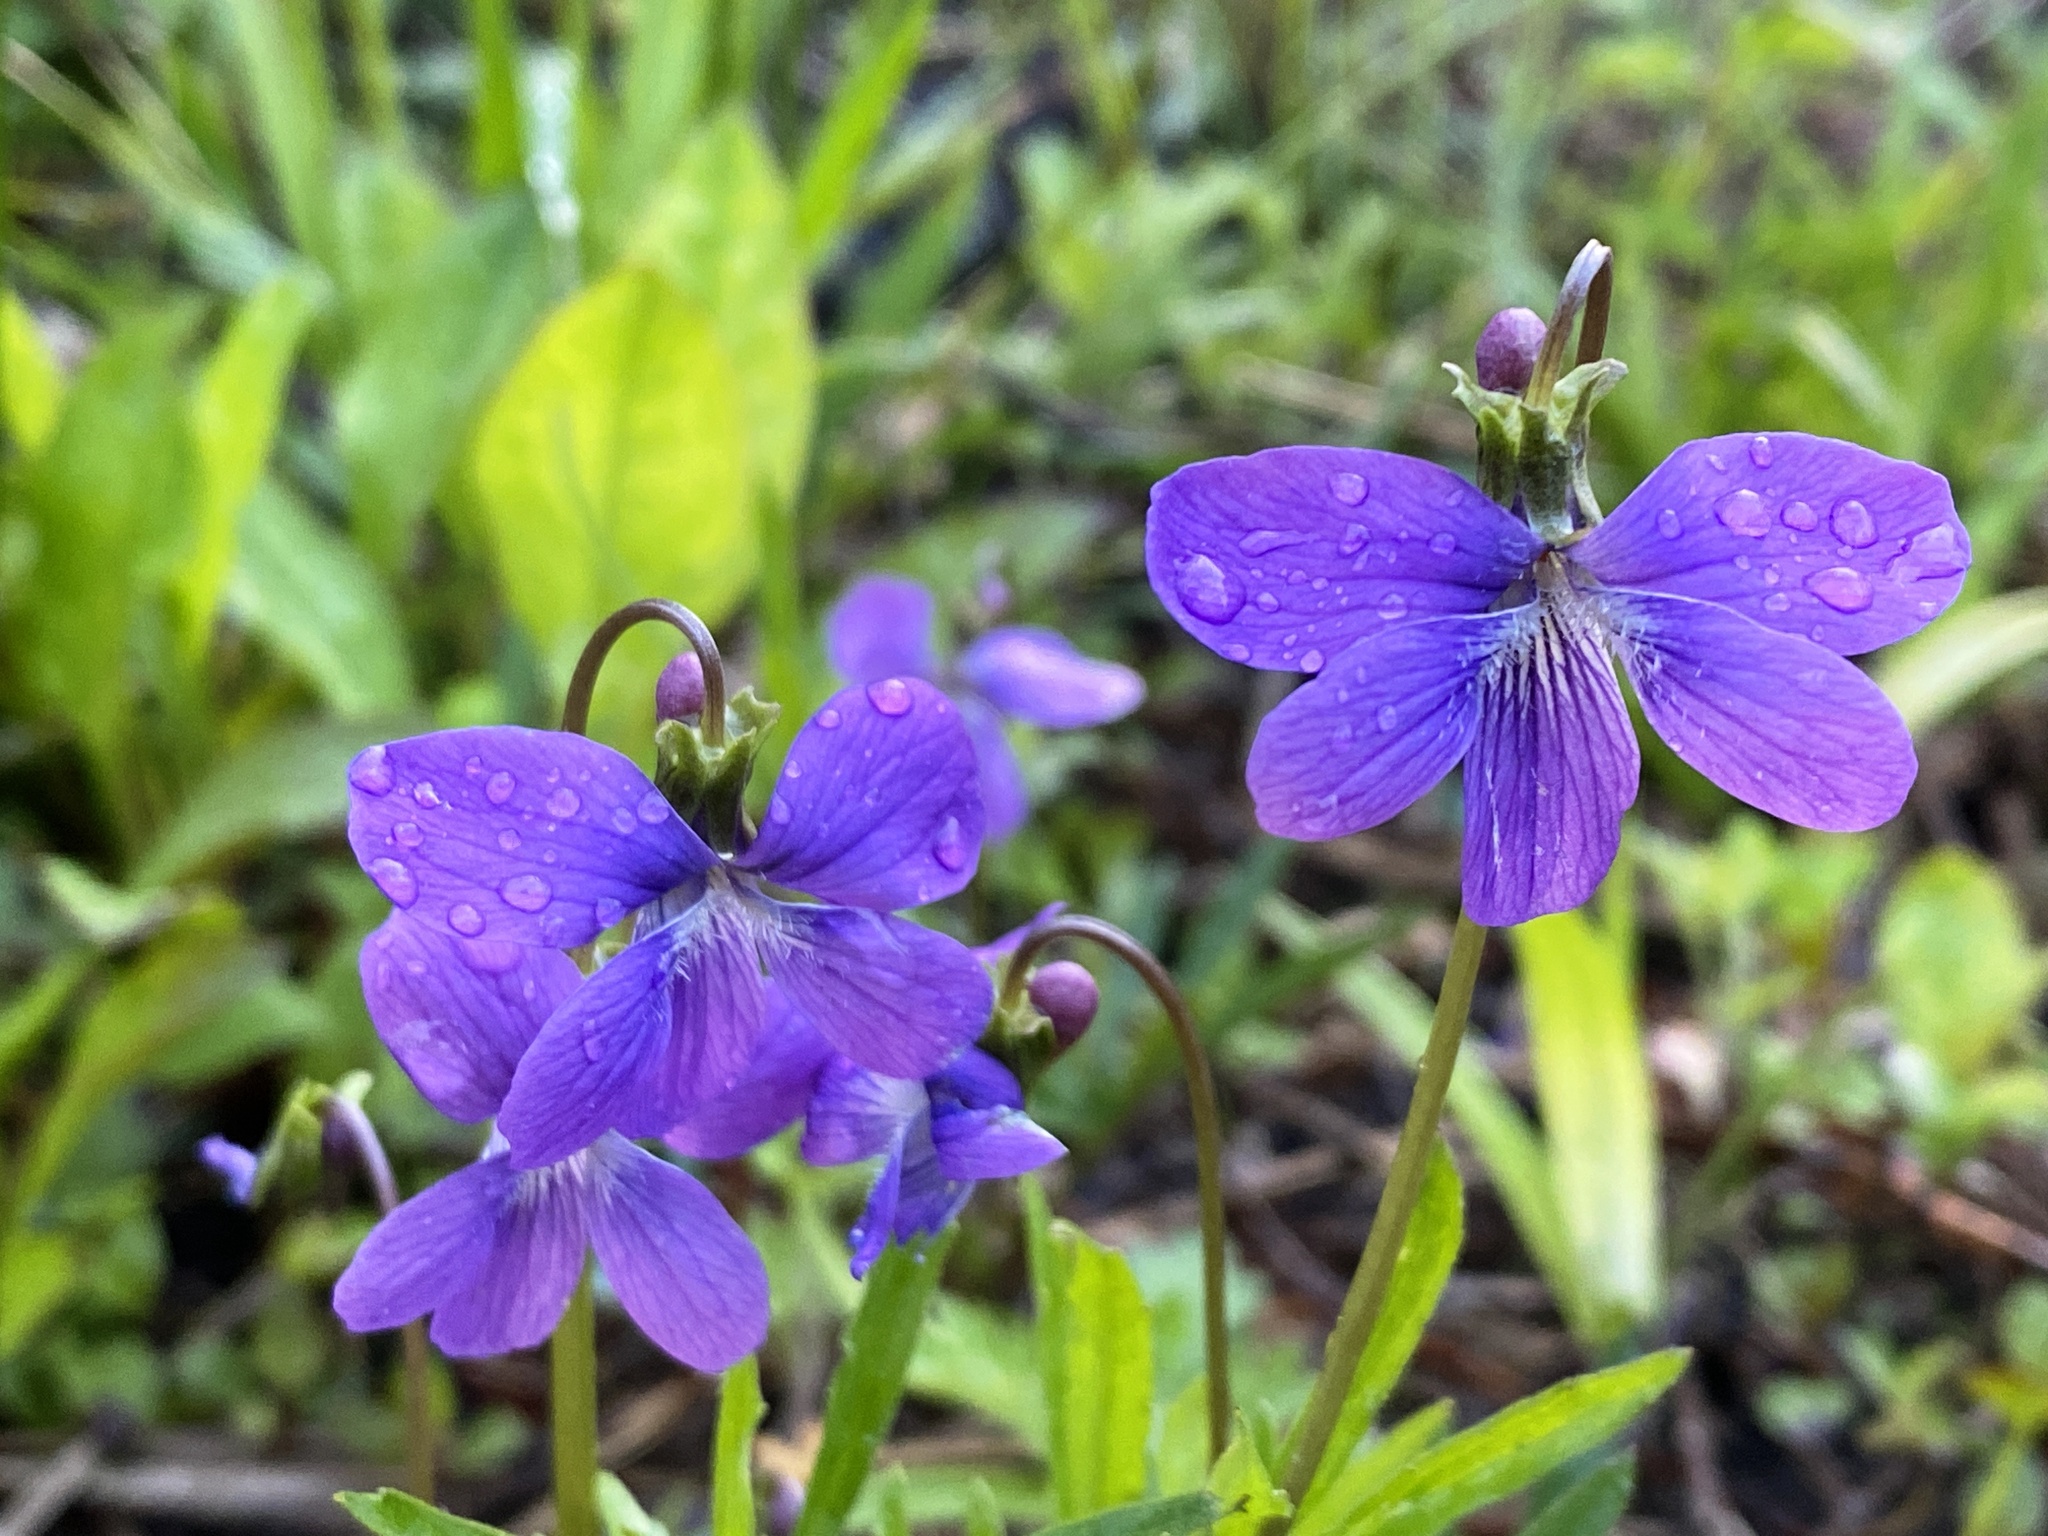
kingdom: Plantae
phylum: Tracheophyta
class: Magnoliopsida
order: Malpighiales
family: Violaceae
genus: Viola
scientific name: Viola brittoniana
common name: Northern coastal violet
